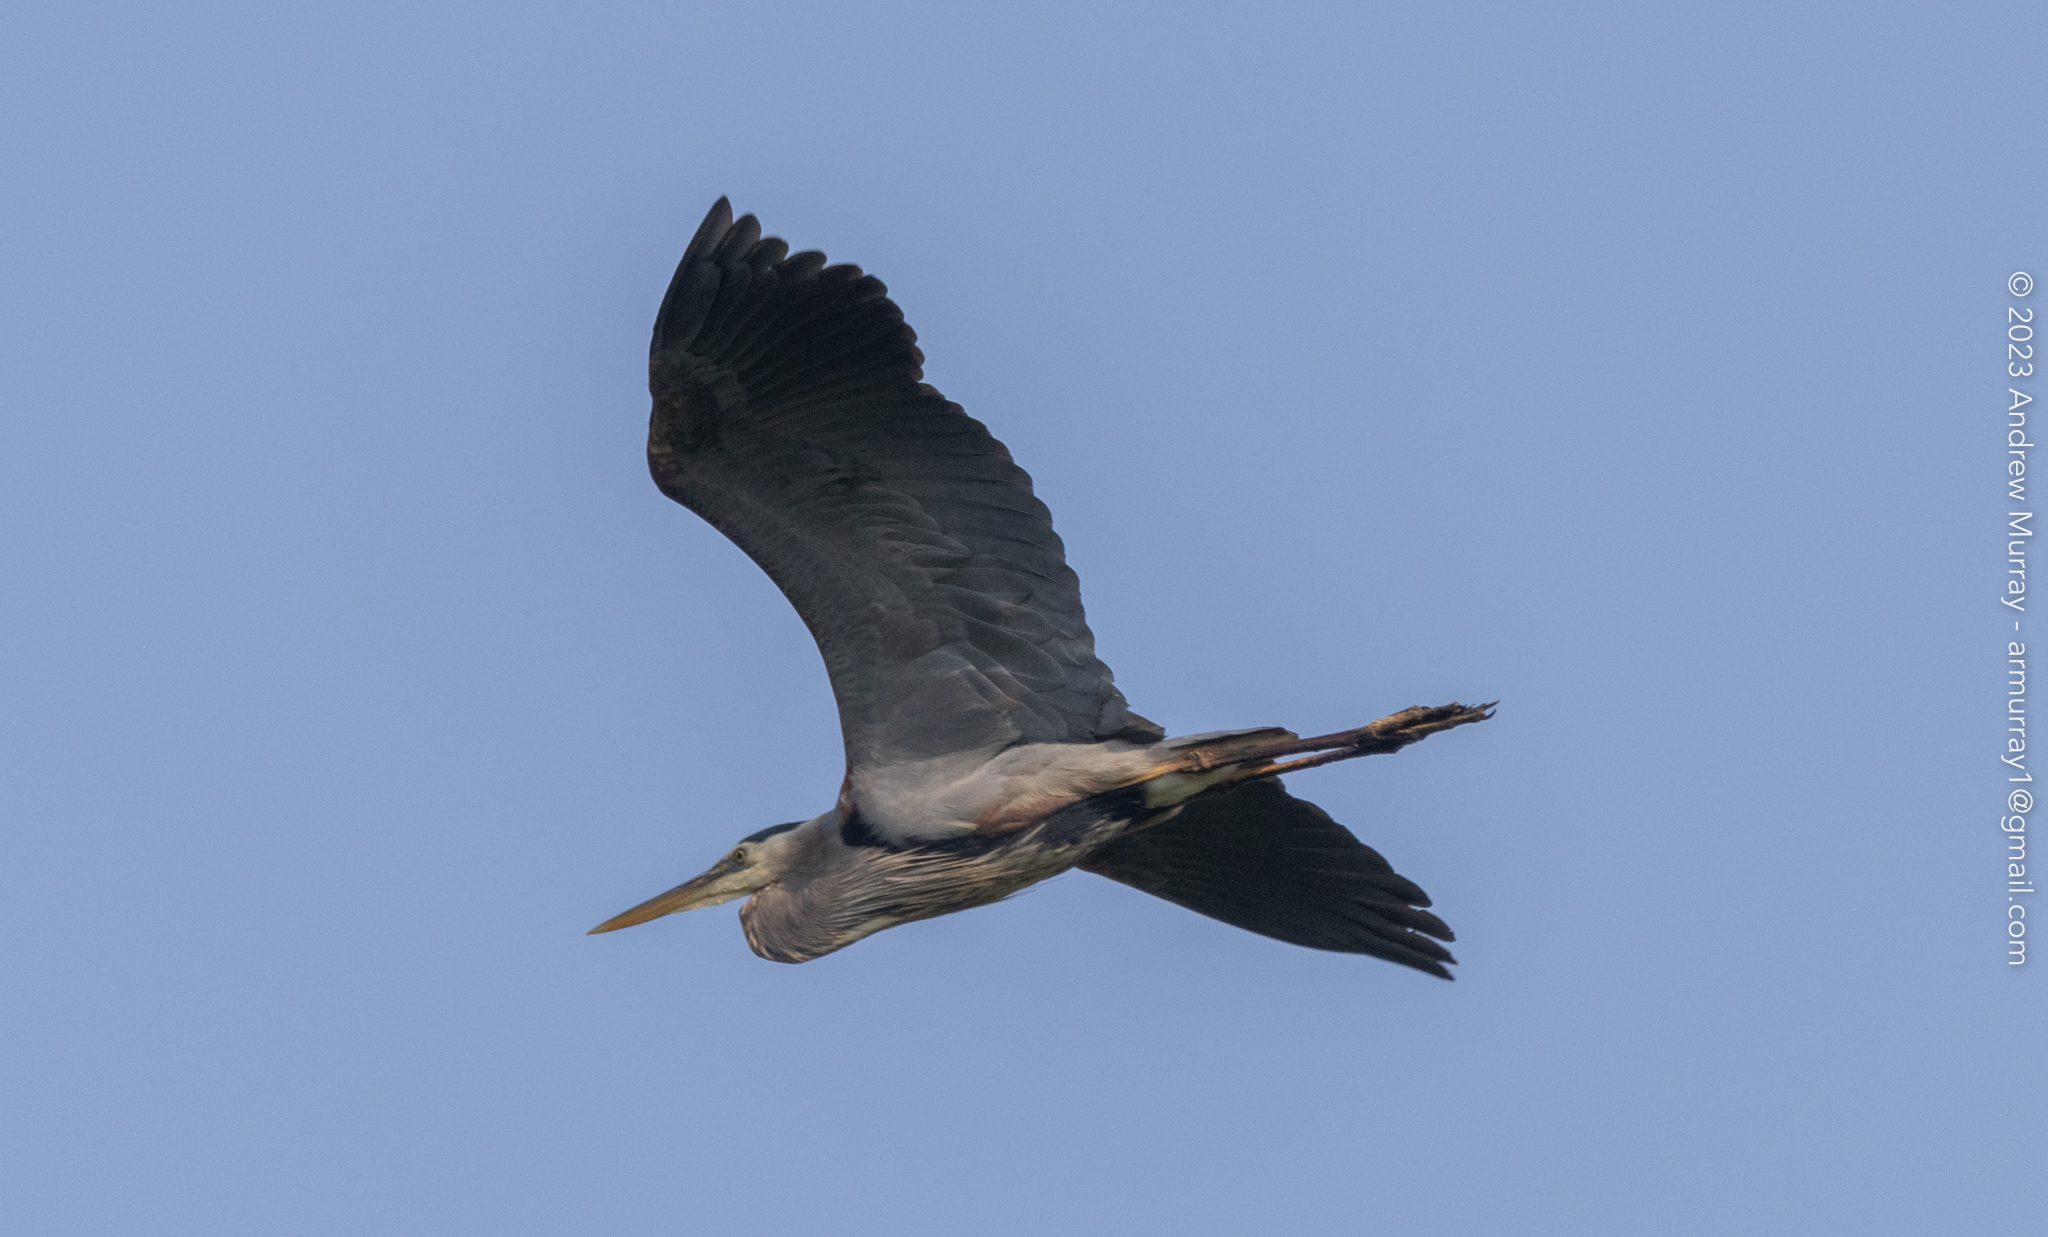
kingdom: Animalia
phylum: Chordata
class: Aves
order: Pelecaniformes
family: Ardeidae
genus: Ardea
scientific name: Ardea herodias
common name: Great blue heron
